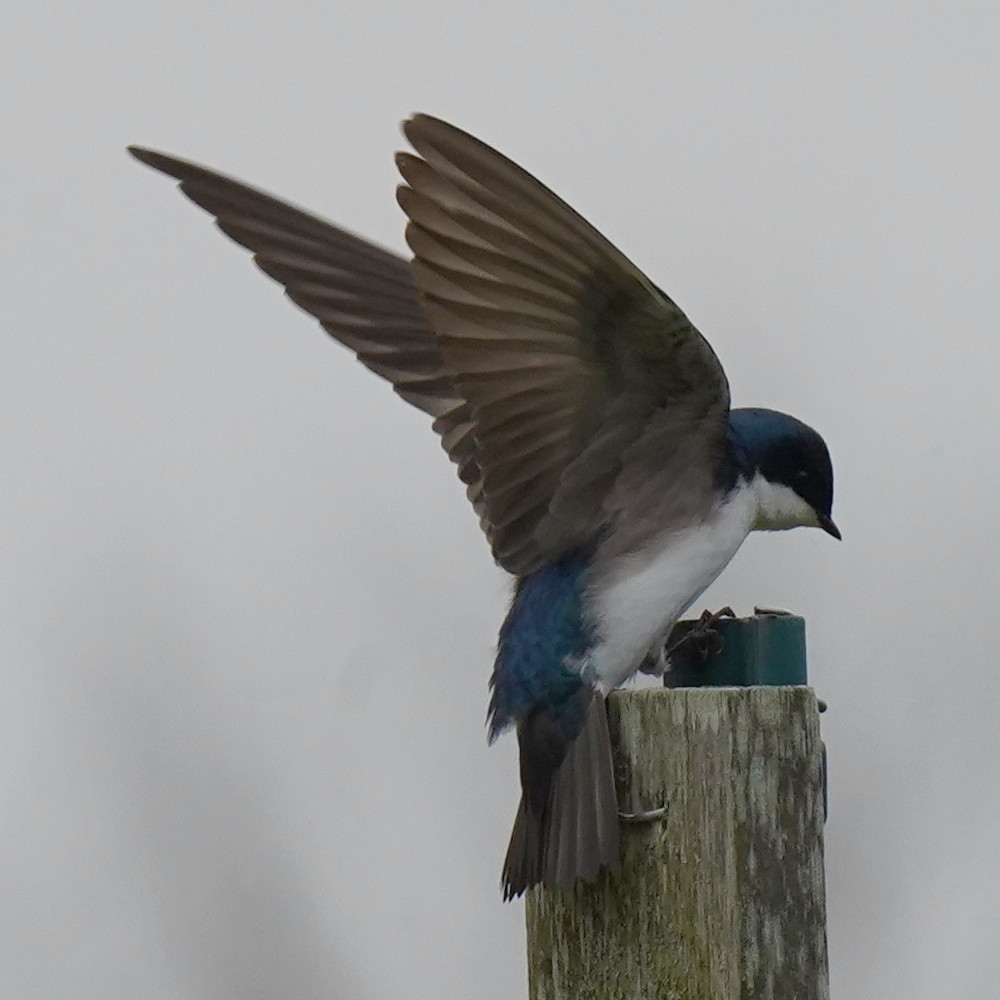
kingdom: Animalia
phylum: Chordata
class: Aves
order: Passeriformes
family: Hirundinidae
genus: Tachycineta
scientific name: Tachycineta bicolor
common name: Tree swallow
